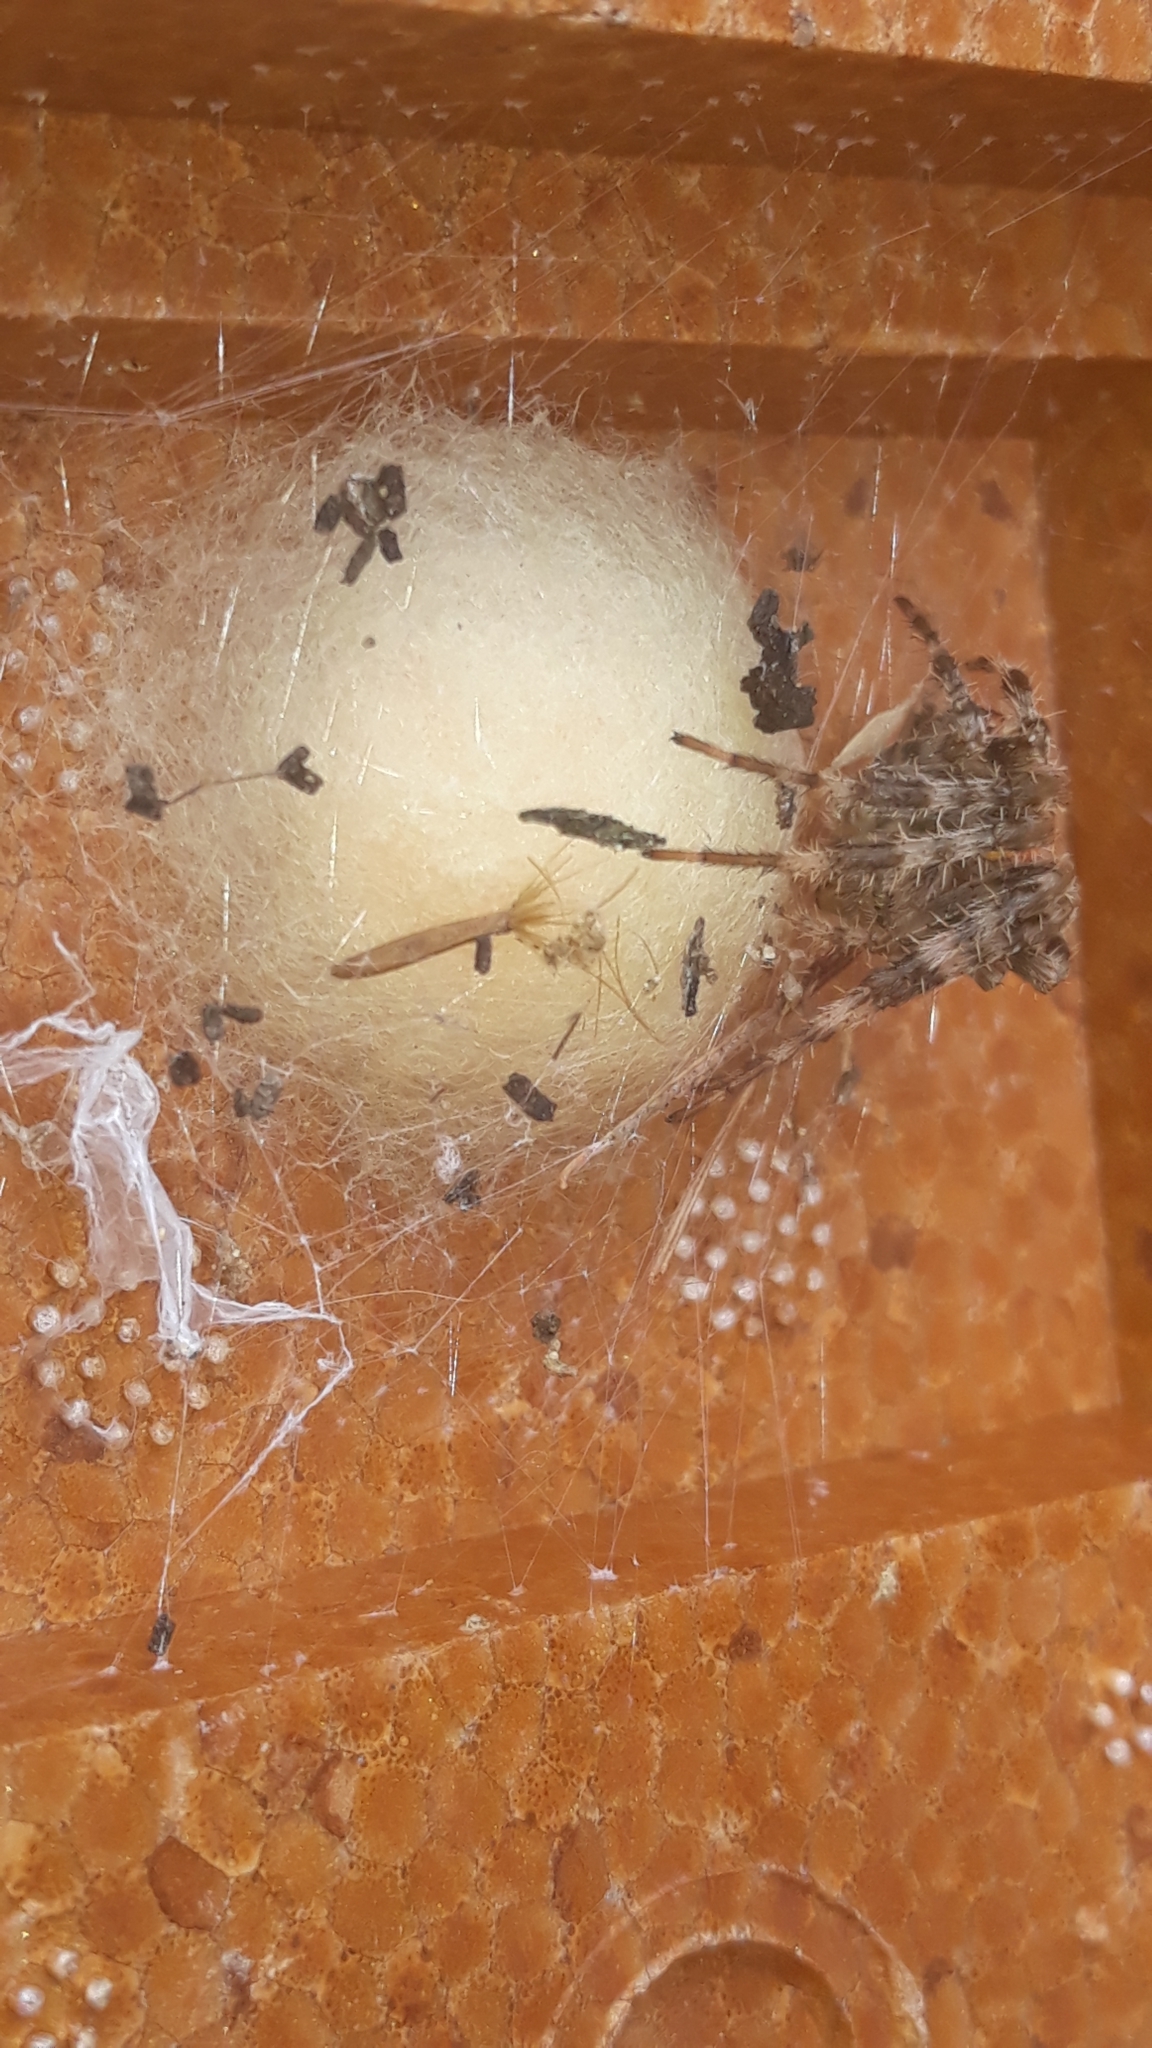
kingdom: Animalia
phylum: Arthropoda
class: Arachnida
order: Araneae
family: Araneidae
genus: Araneus
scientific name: Araneus diadematus
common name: Cross orbweaver
